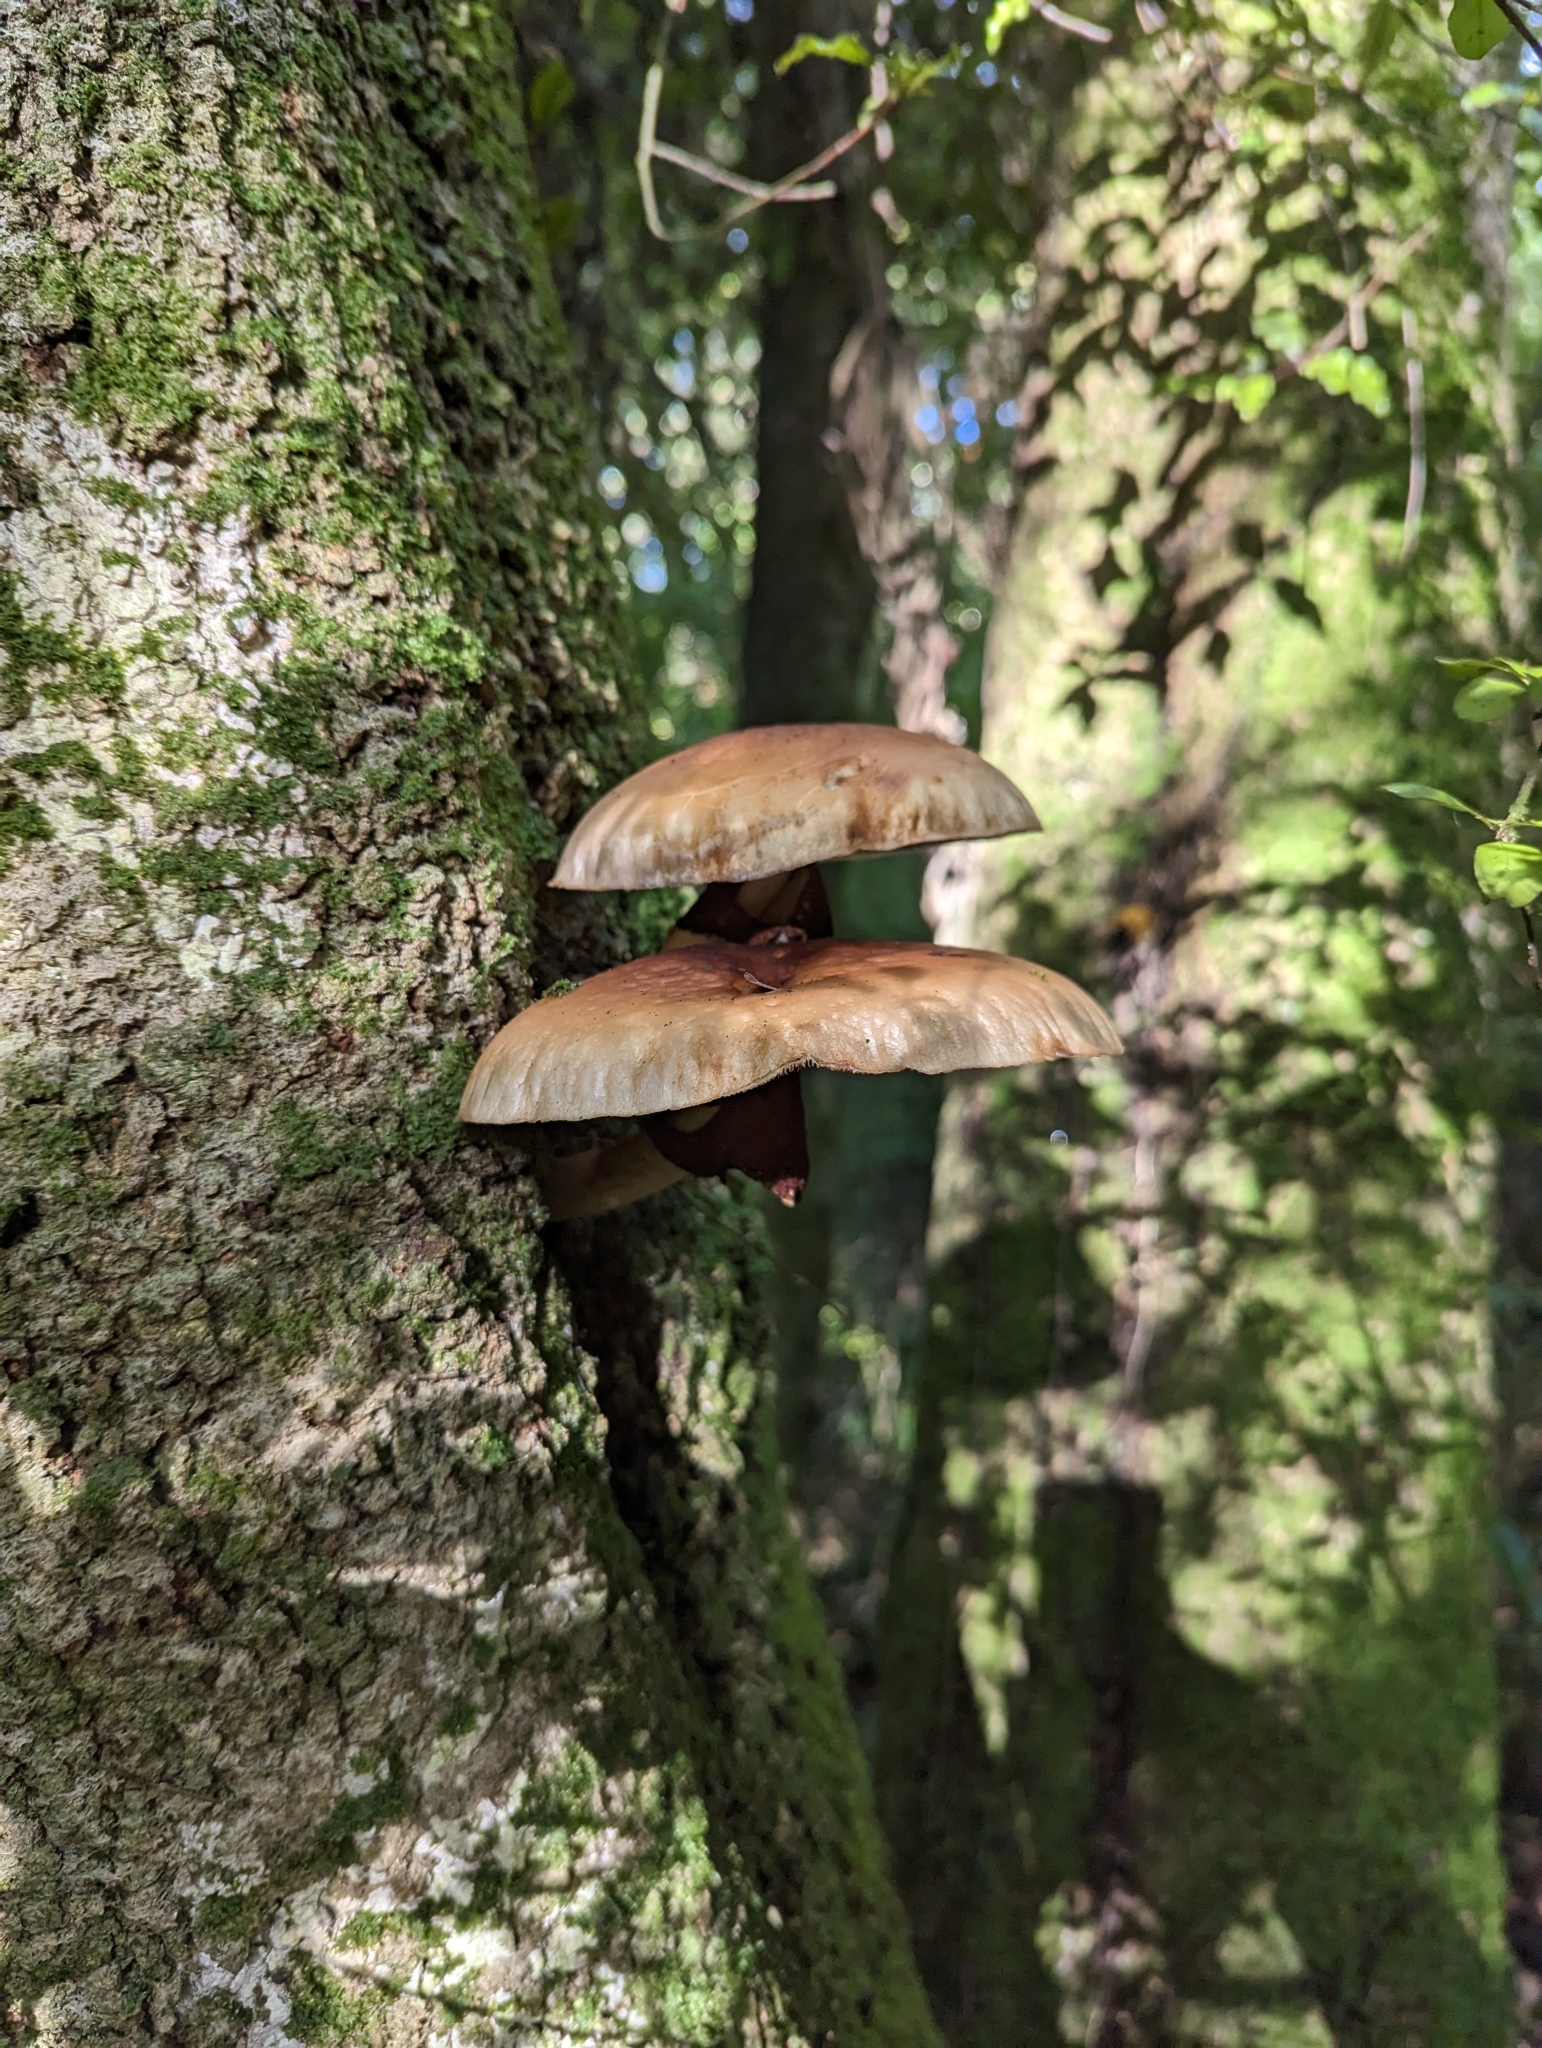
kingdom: Fungi
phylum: Basidiomycota
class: Agaricomycetes
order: Agaricales
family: Tubariaceae
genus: Cyclocybe
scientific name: Cyclocybe parasitica
